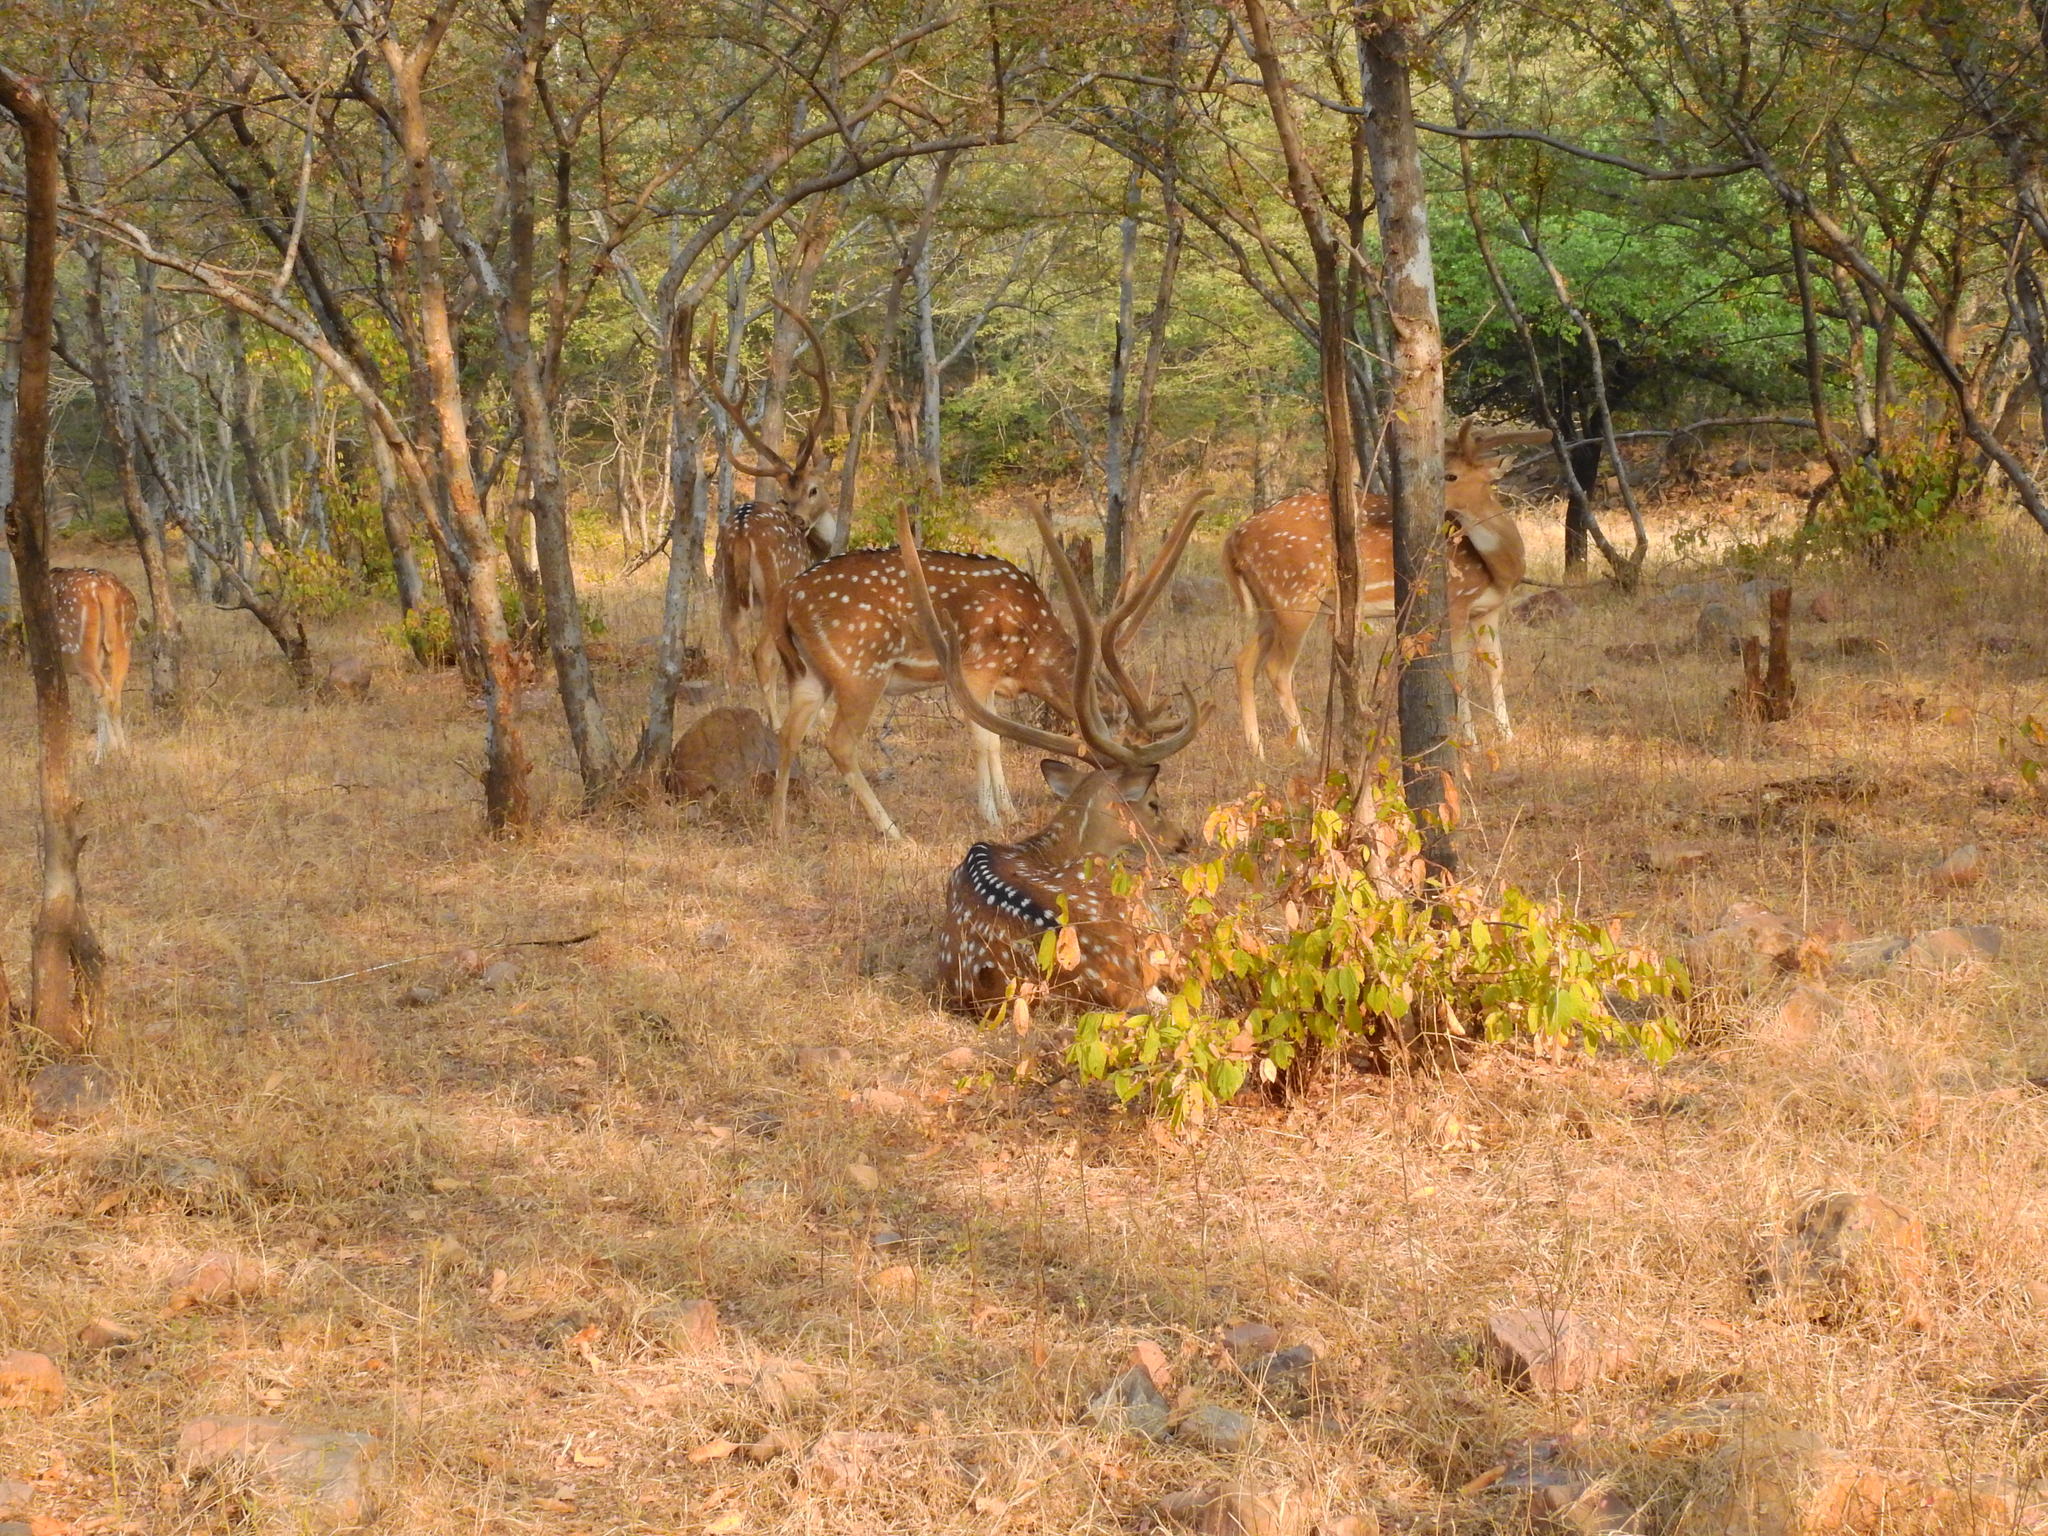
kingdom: Animalia
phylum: Chordata
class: Mammalia
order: Artiodactyla
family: Cervidae
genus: Axis
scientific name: Axis axis
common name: Chital
